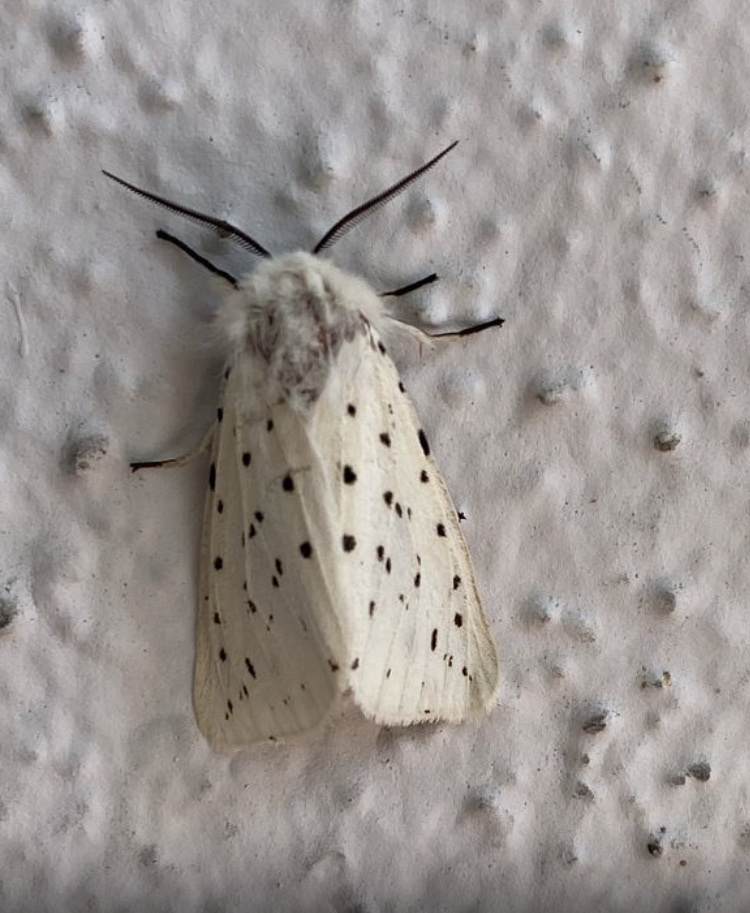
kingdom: Animalia
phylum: Arthropoda
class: Insecta
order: Lepidoptera
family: Erebidae
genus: Spilosoma
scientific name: Spilosoma lubricipeda
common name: White ermine
